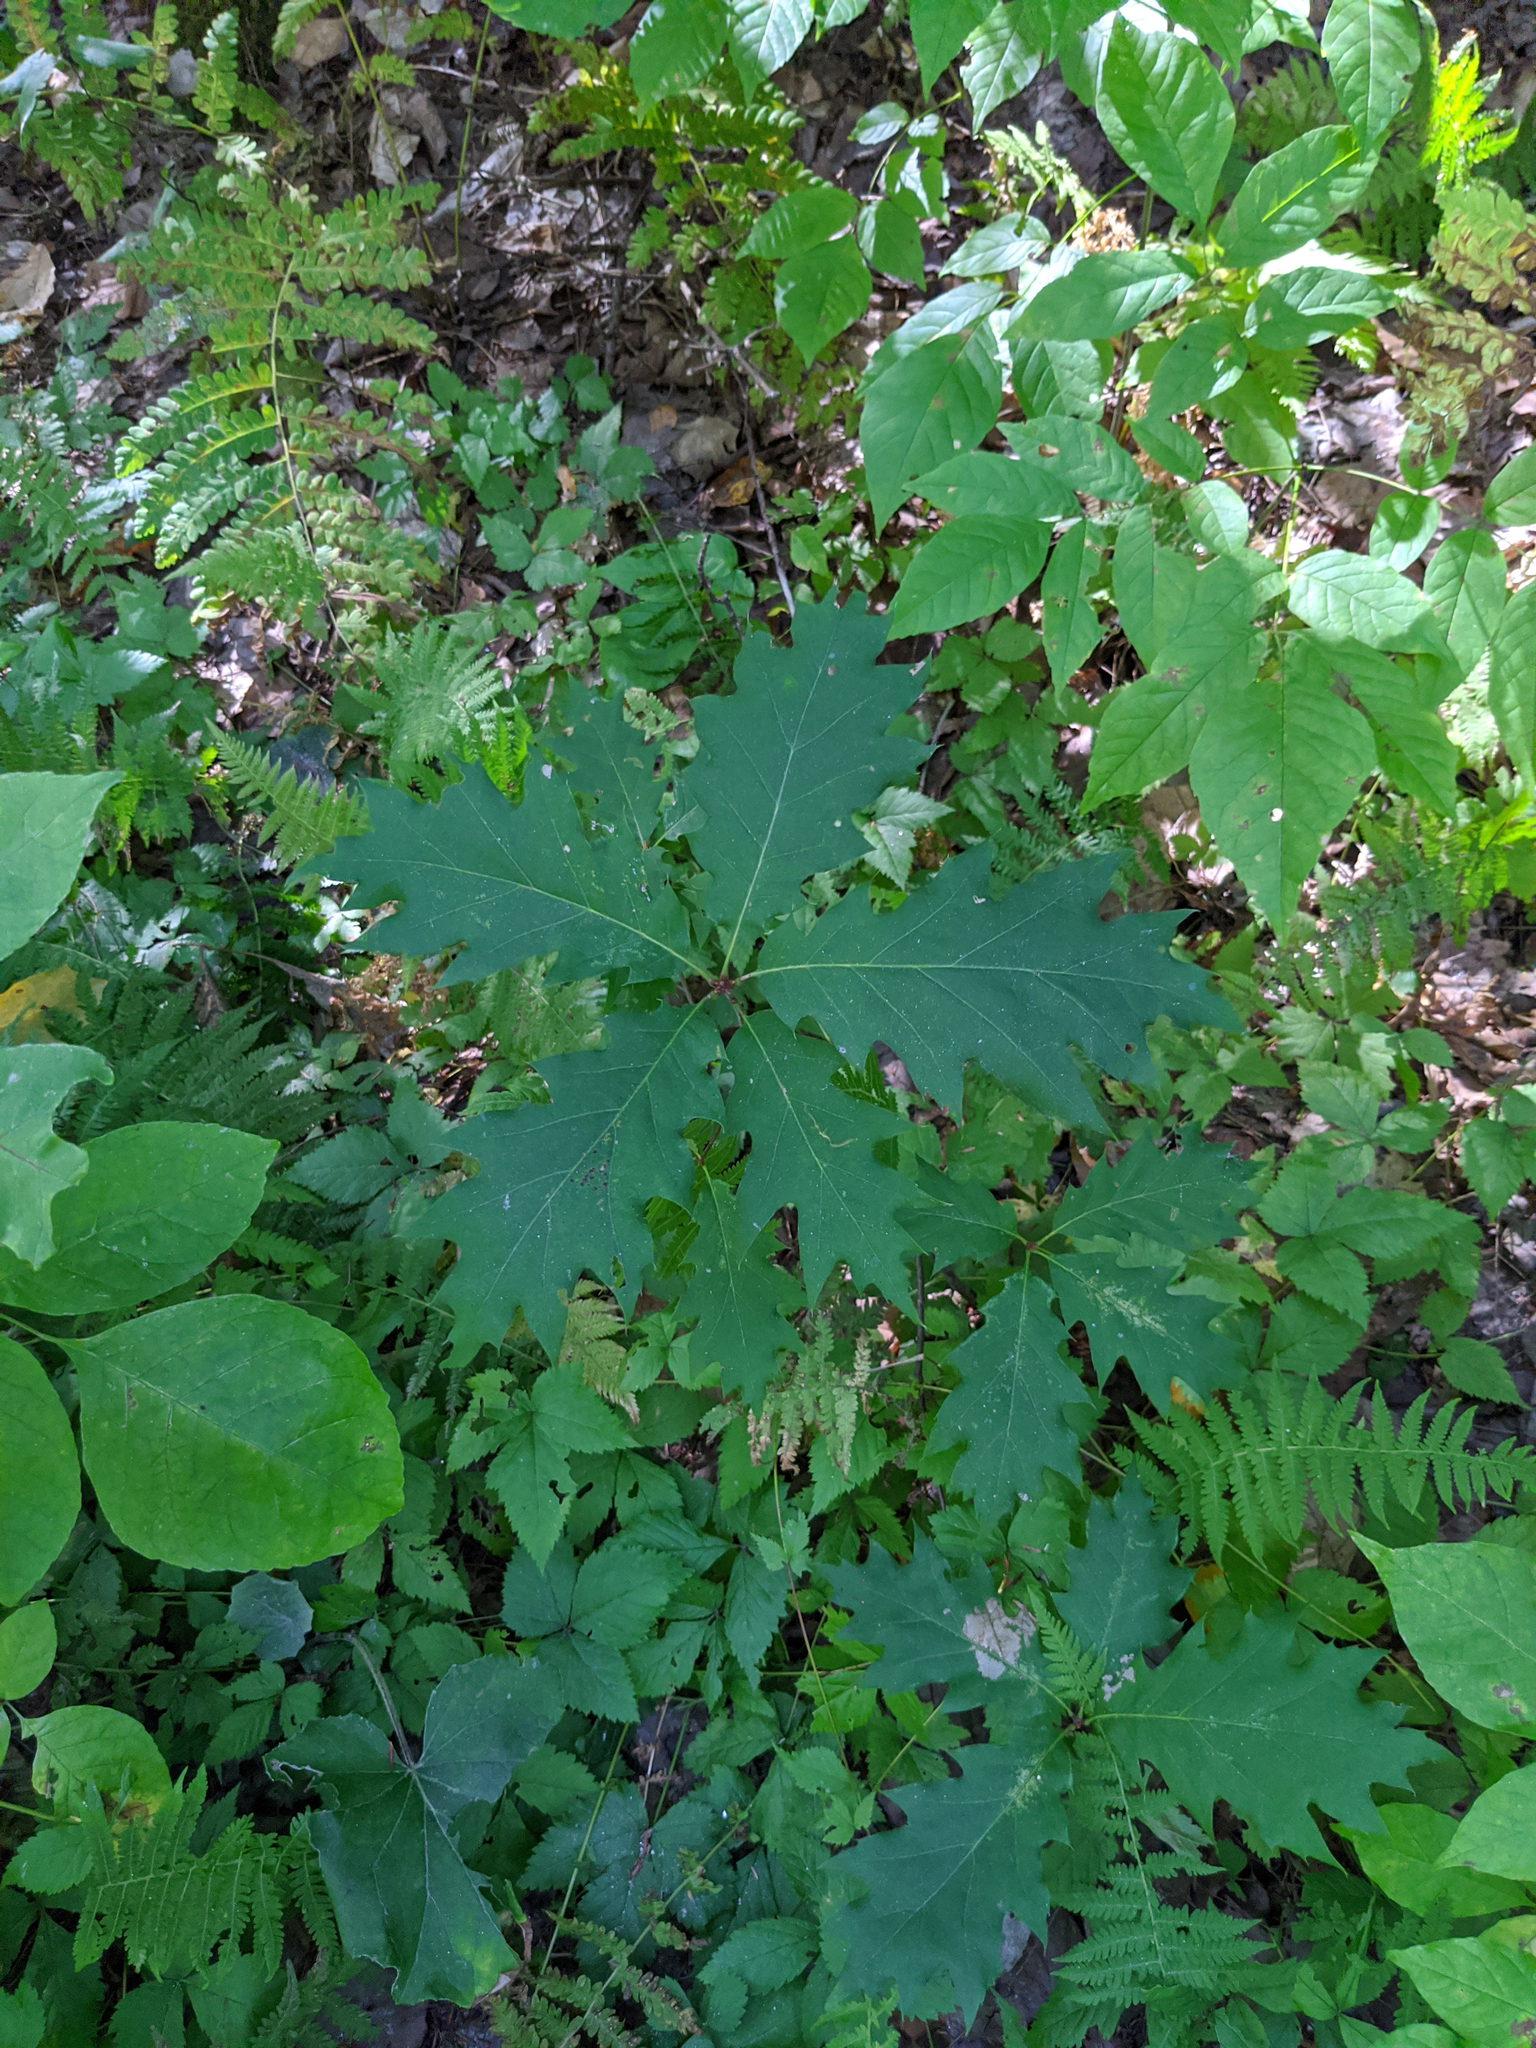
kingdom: Plantae
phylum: Tracheophyta
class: Magnoliopsida
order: Fagales
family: Fagaceae
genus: Quercus
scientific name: Quercus rubra
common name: Red oak
